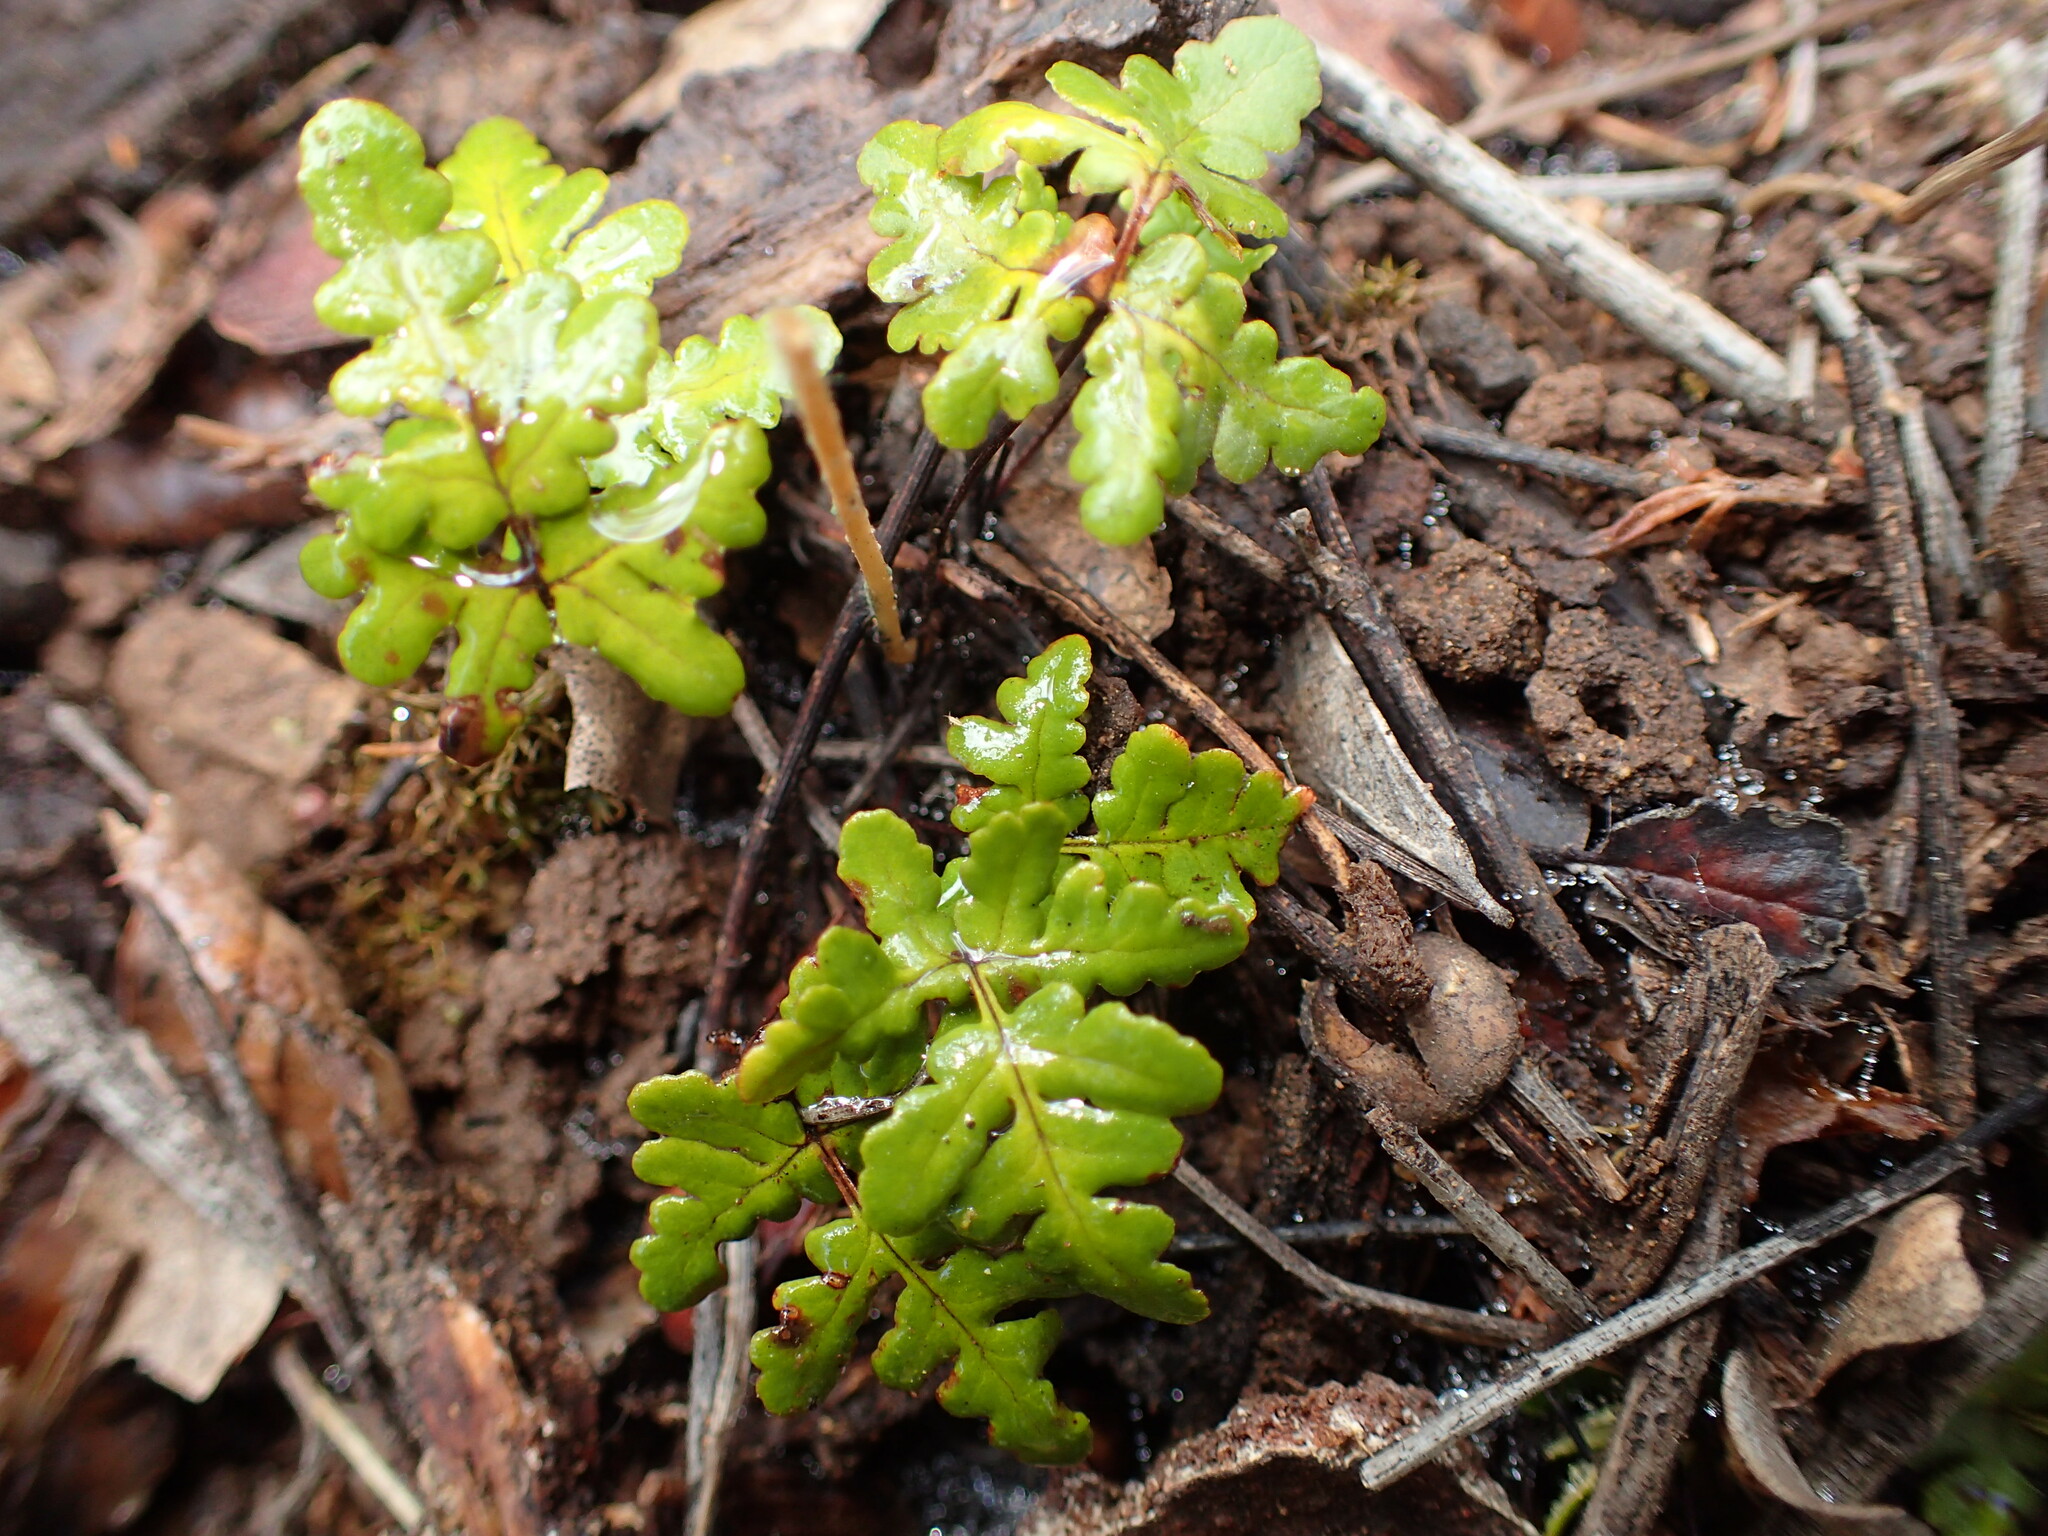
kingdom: Plantae
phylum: Tracheophyta
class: Polypodiopsida
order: Polypodiales
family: Pteridaceae
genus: Pentagramma
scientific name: Pentagramma triangularis
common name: Gold fern
